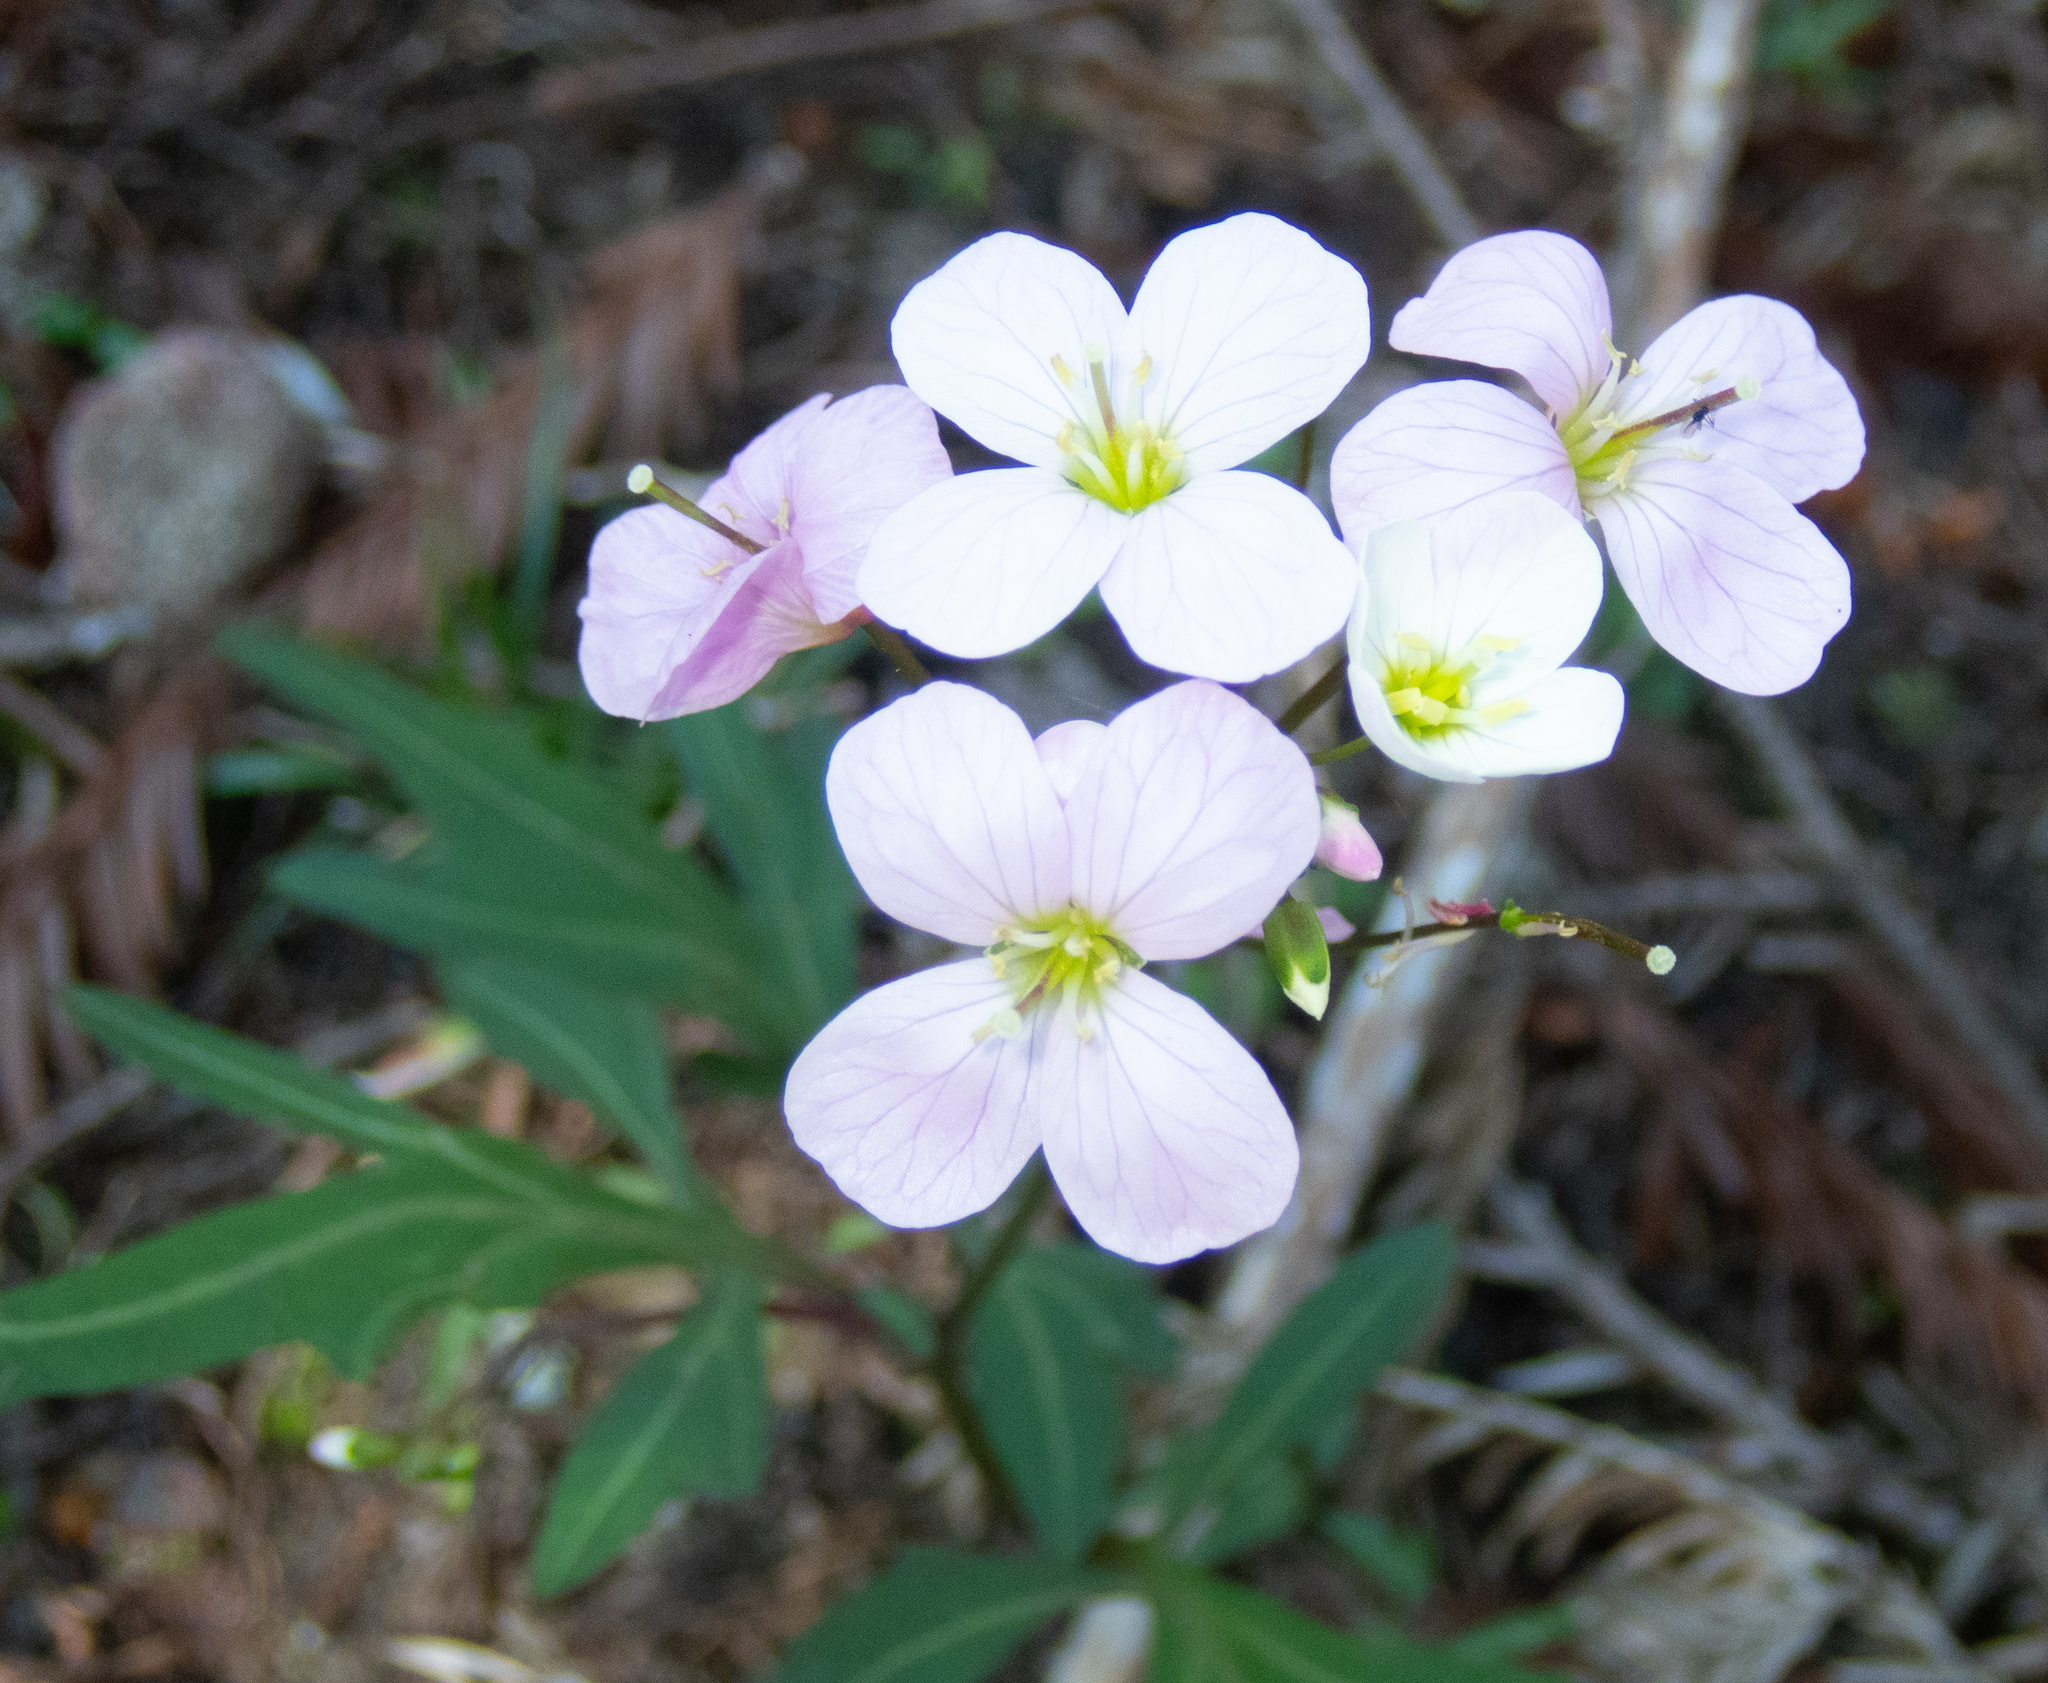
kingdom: Plantae
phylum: Tracheophyta
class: Magnoliopsida
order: Brassicales
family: Brassicaceae
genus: Cardamine
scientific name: Cardamine californica
